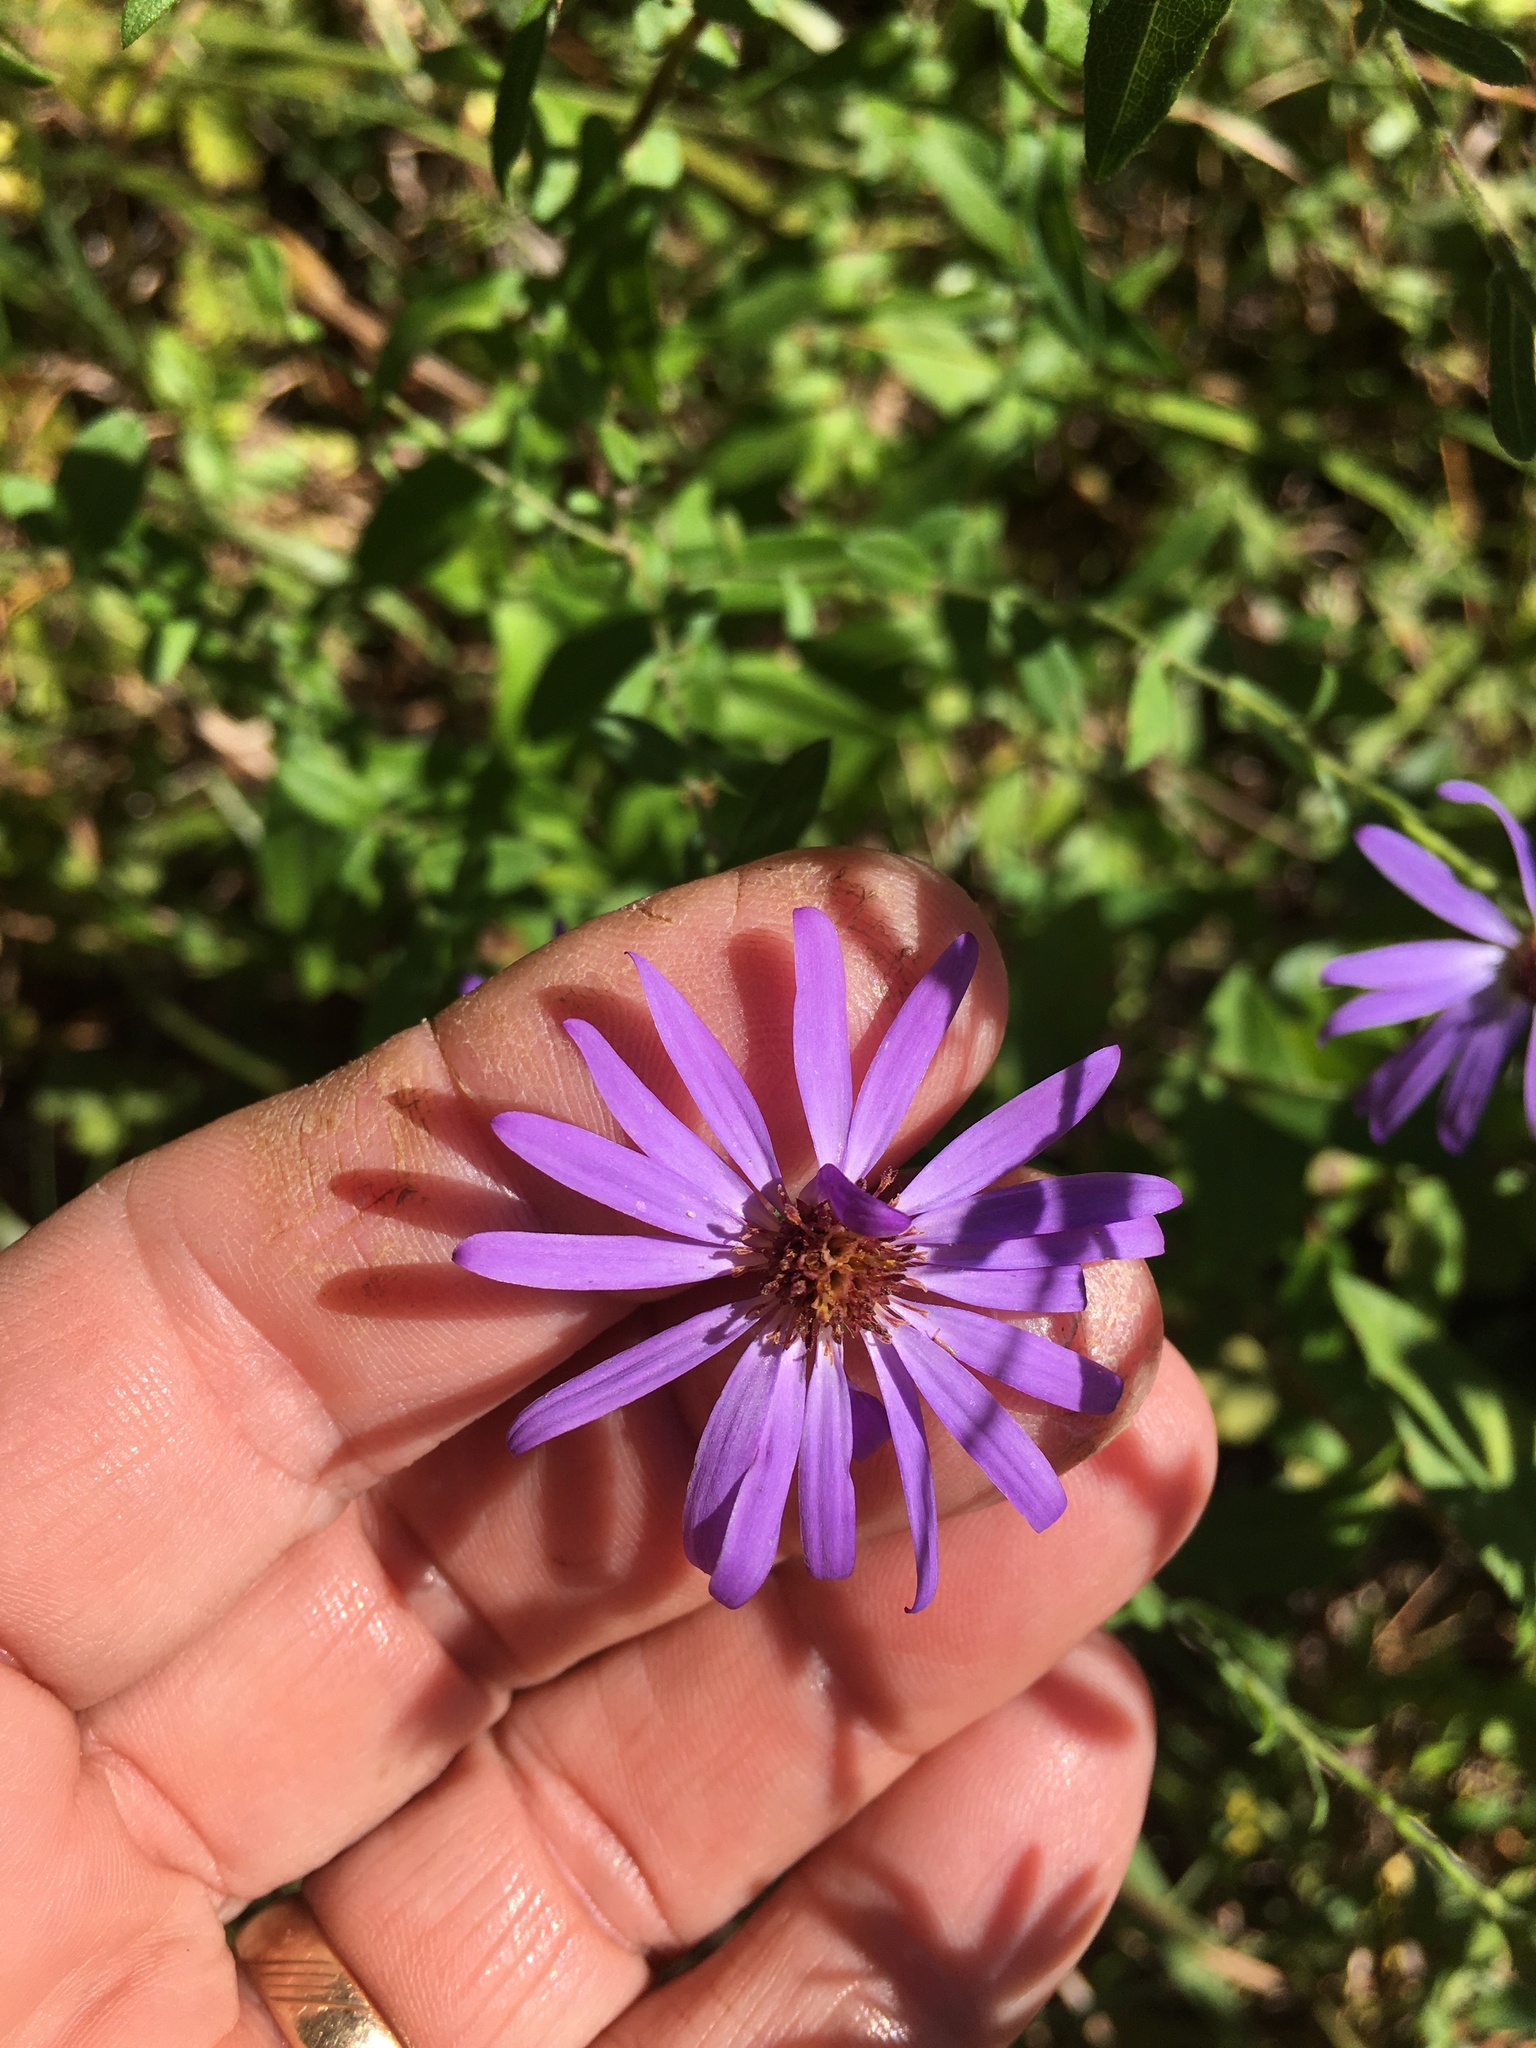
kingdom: Plantae
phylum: Tracheophyta
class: Magnoliopsida
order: Asterales
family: Asteraceae
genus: Symphyotrichum
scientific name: Symphyotrichum patens
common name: Late purple aster
